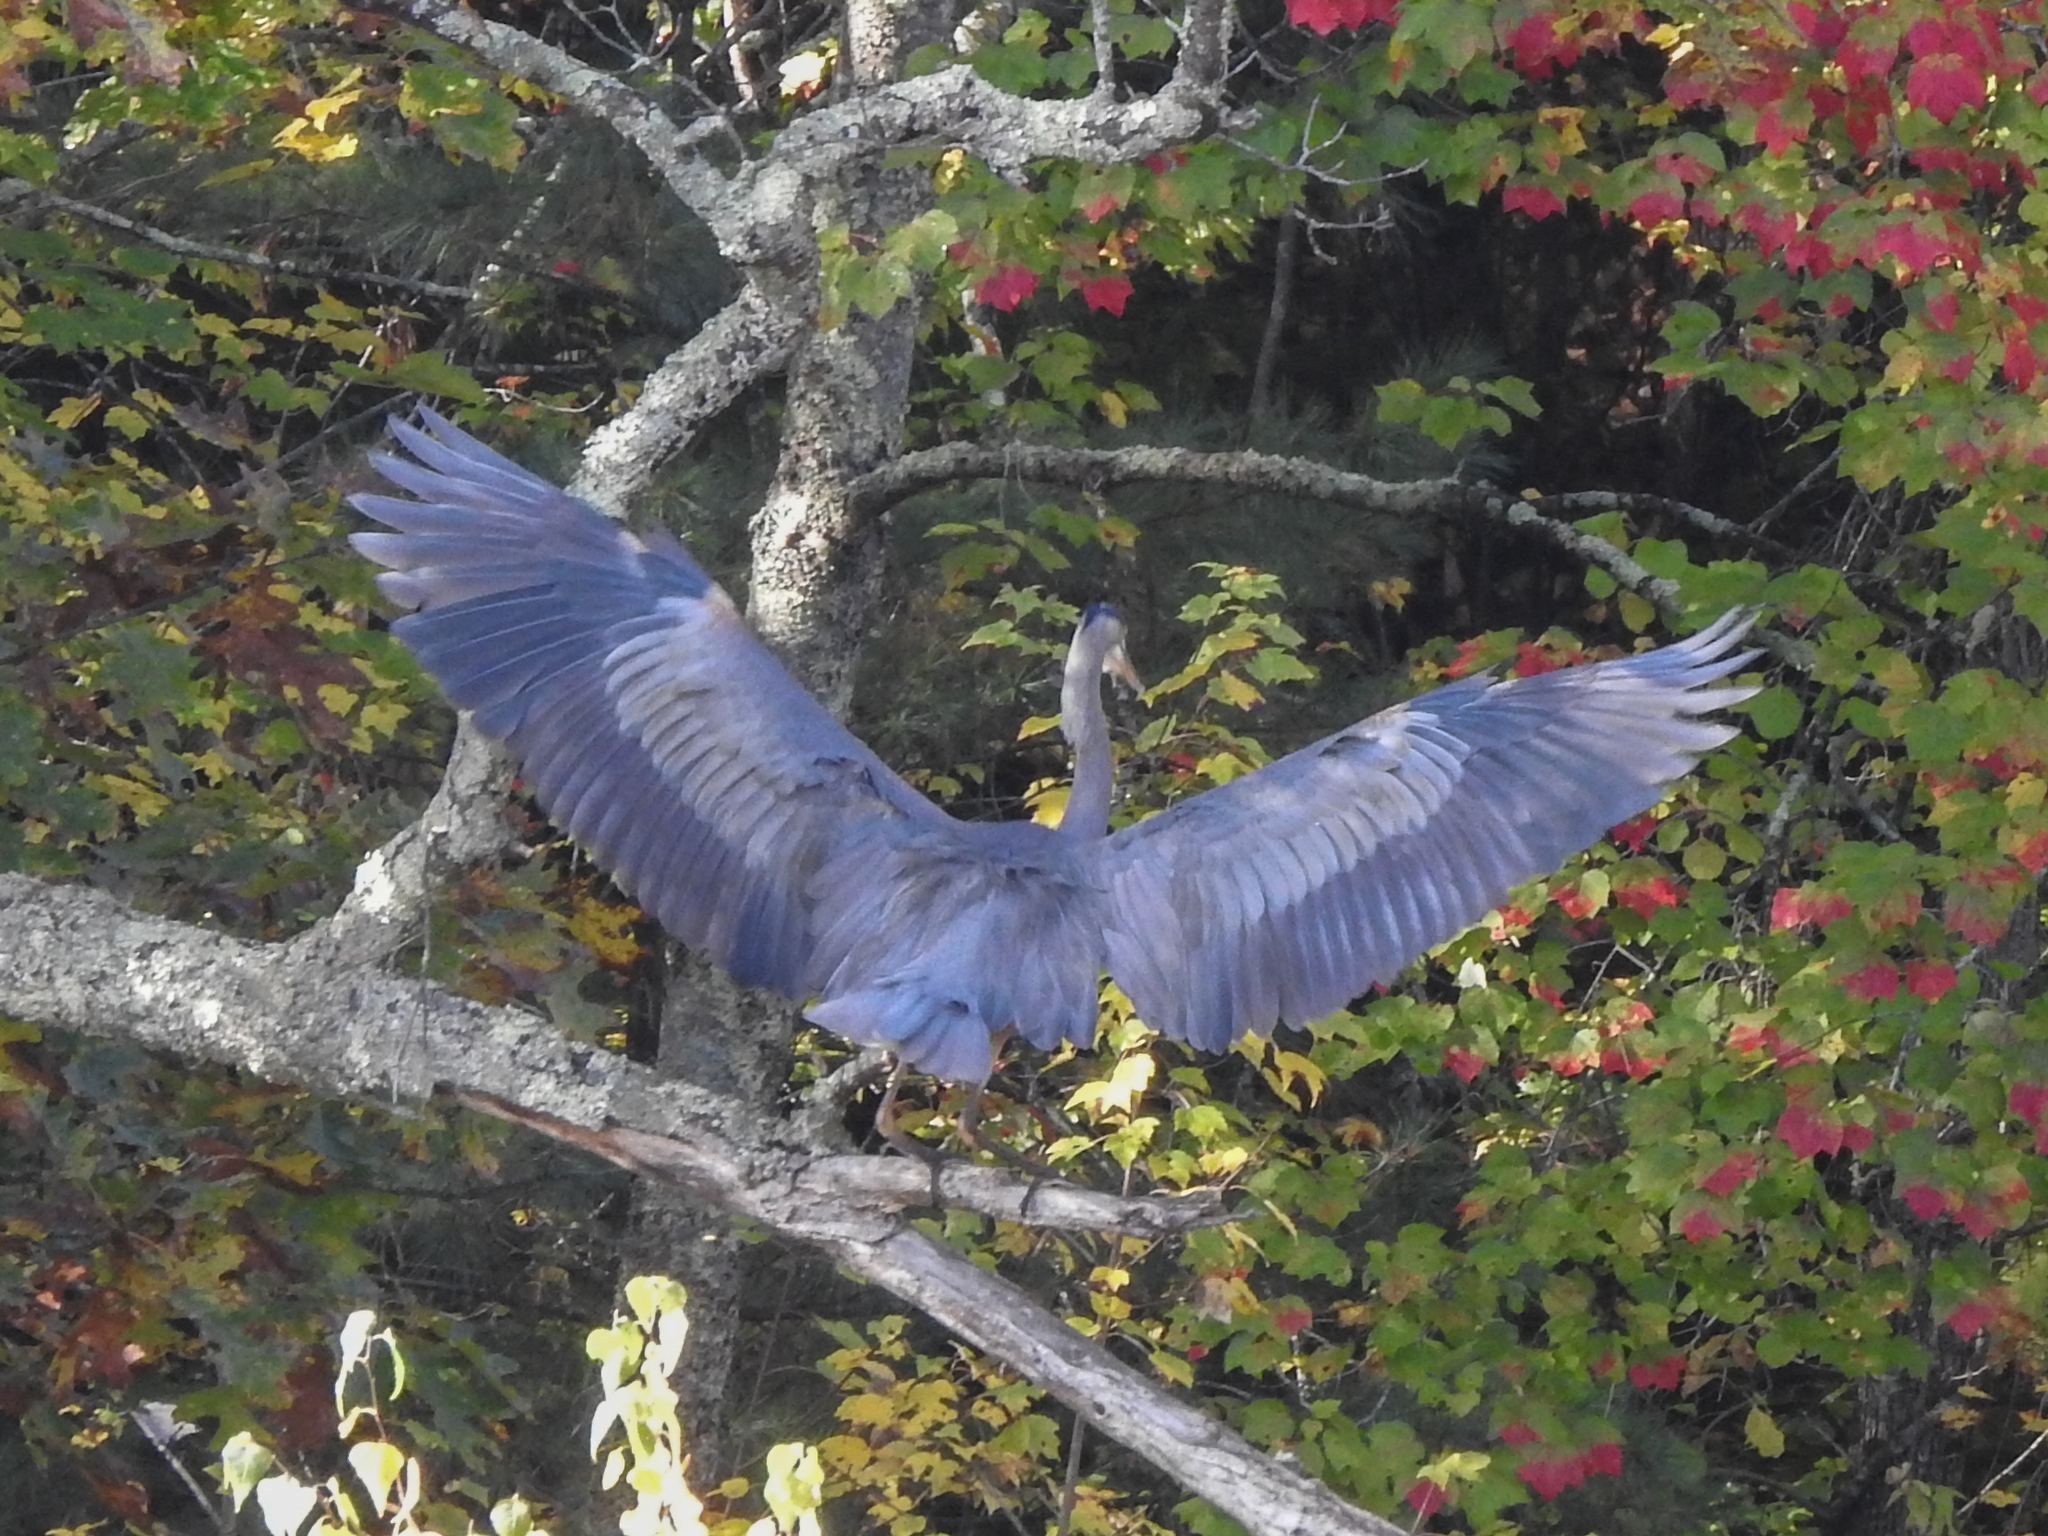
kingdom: Animalia
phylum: Chordata
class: Aves
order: Pelecaniformes
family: Ardeidae
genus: Ardea
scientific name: Ardea herodias
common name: Great blue heron
